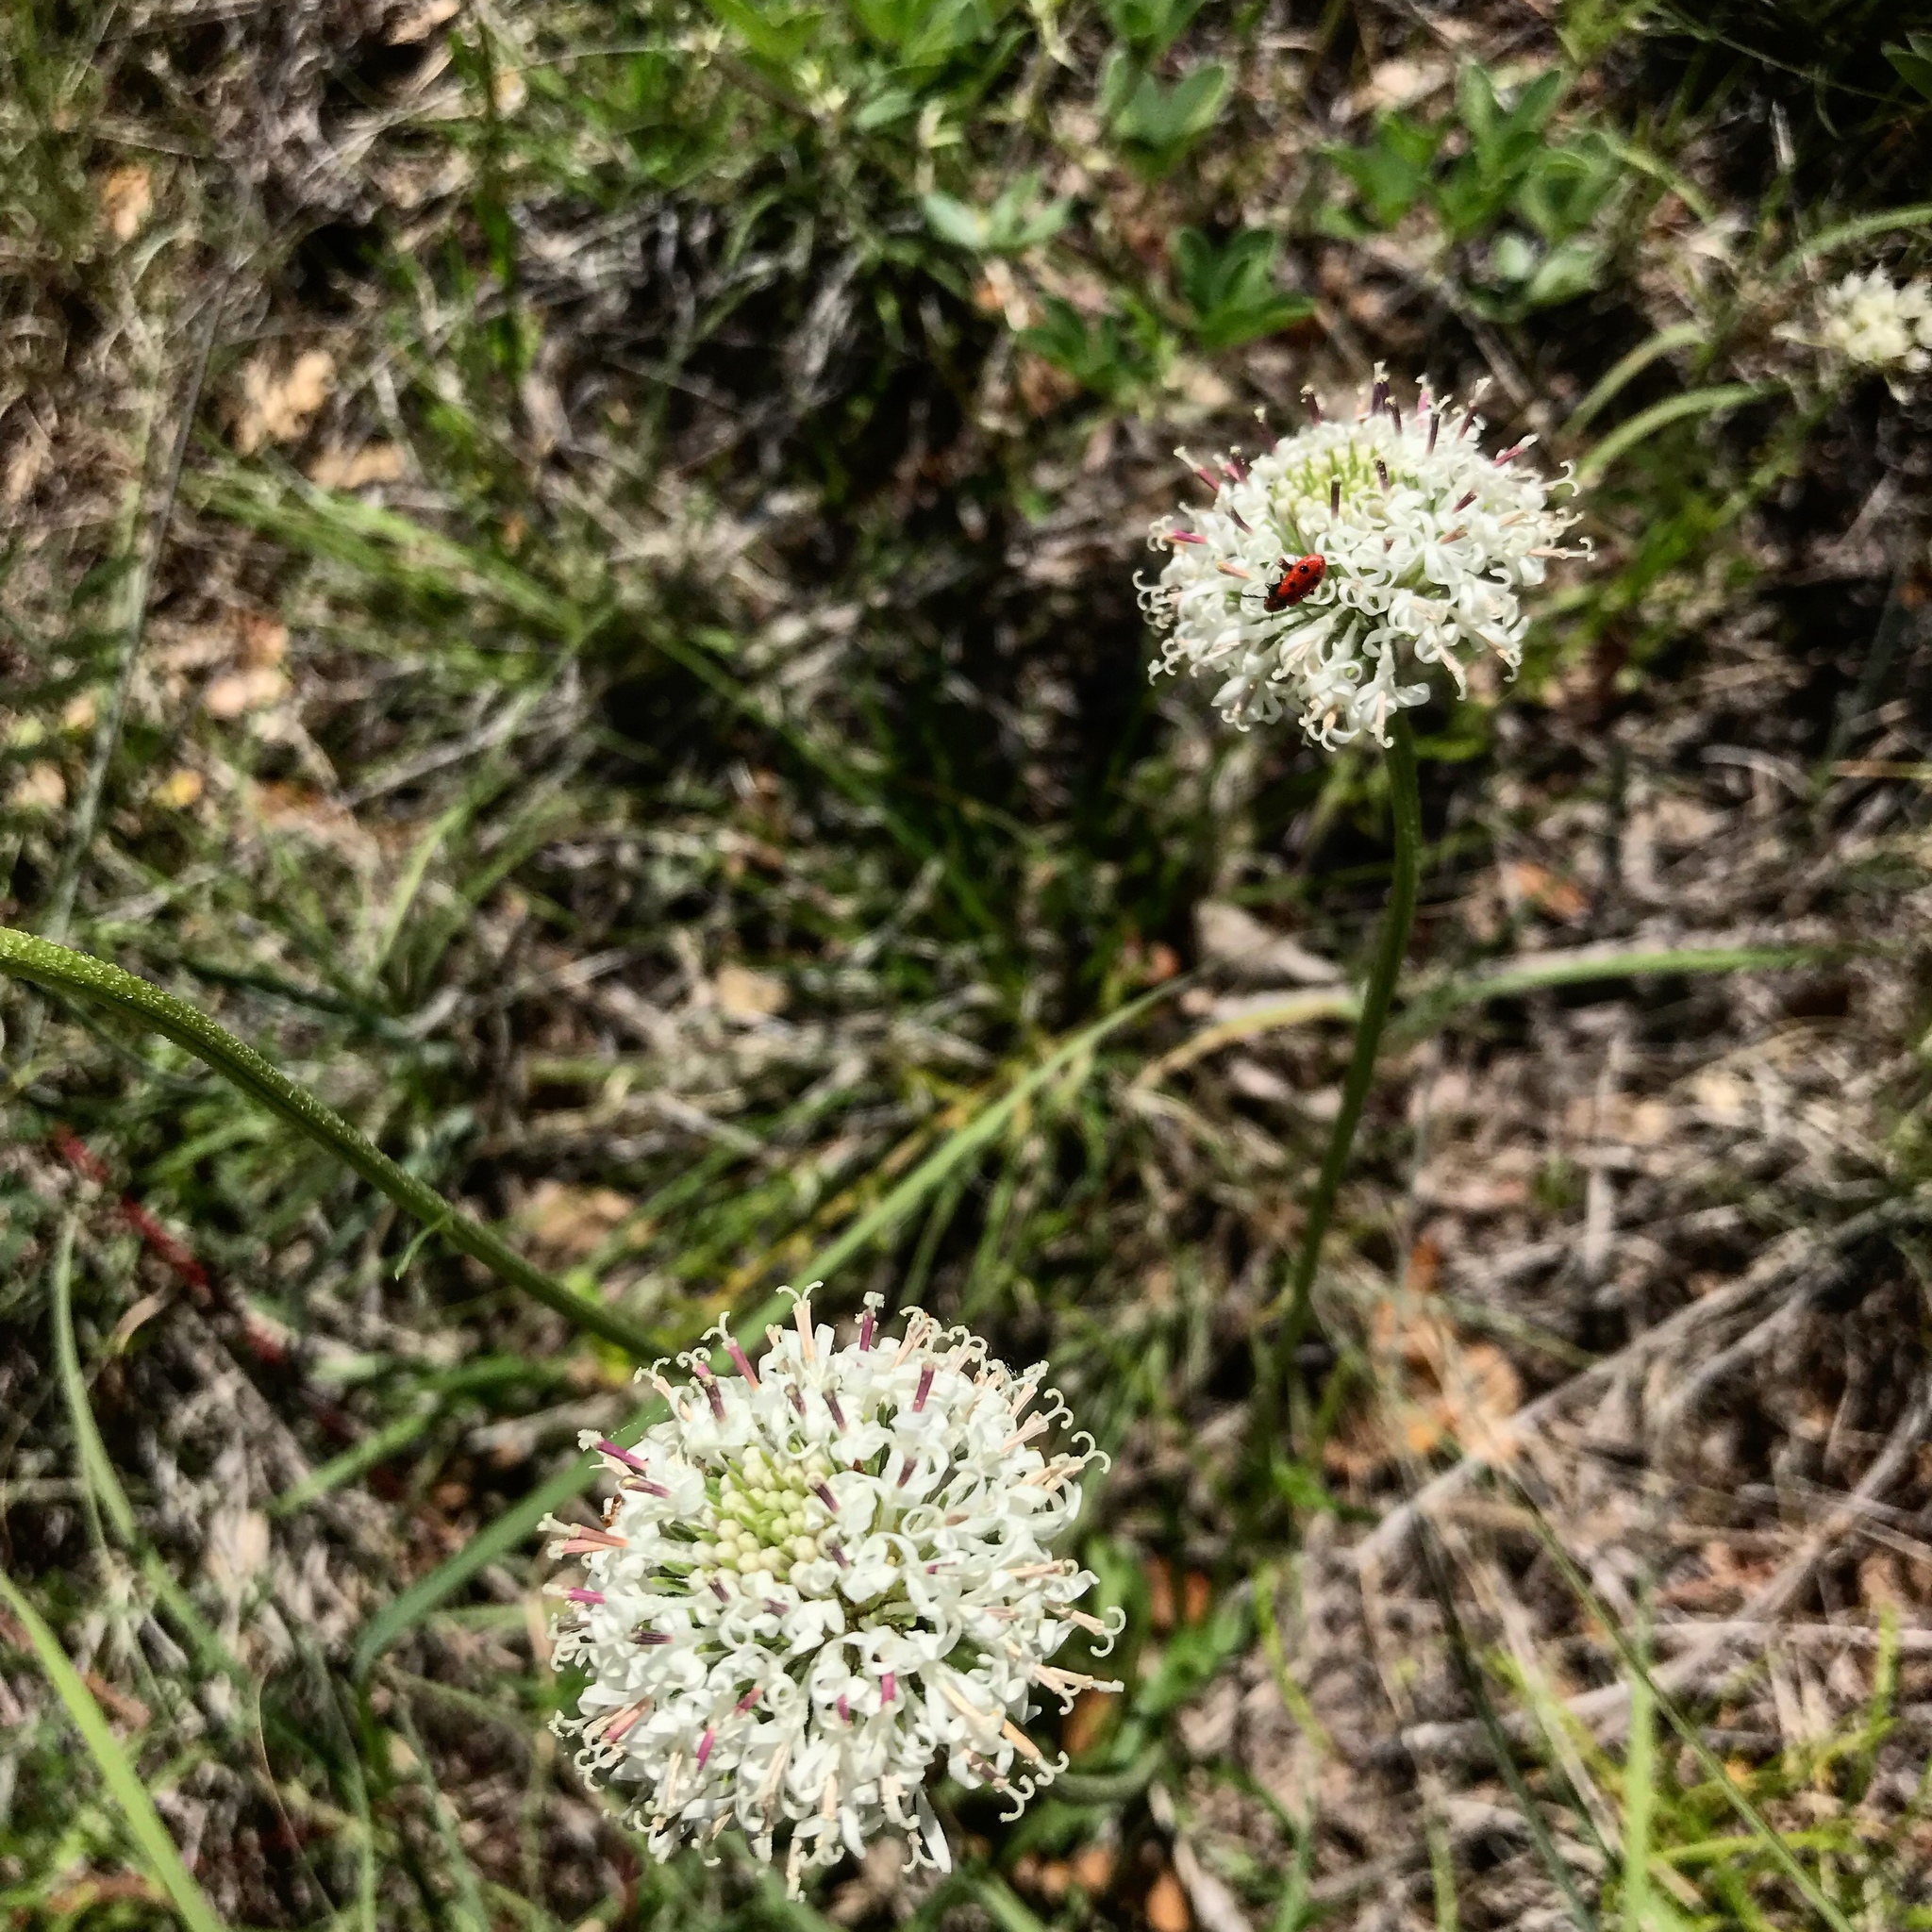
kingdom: Plantae
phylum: Tracheophyta
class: Magnoliopsida
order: Asterales
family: Asteraceae
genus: Marshallia
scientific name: Marshallia caespitosa
